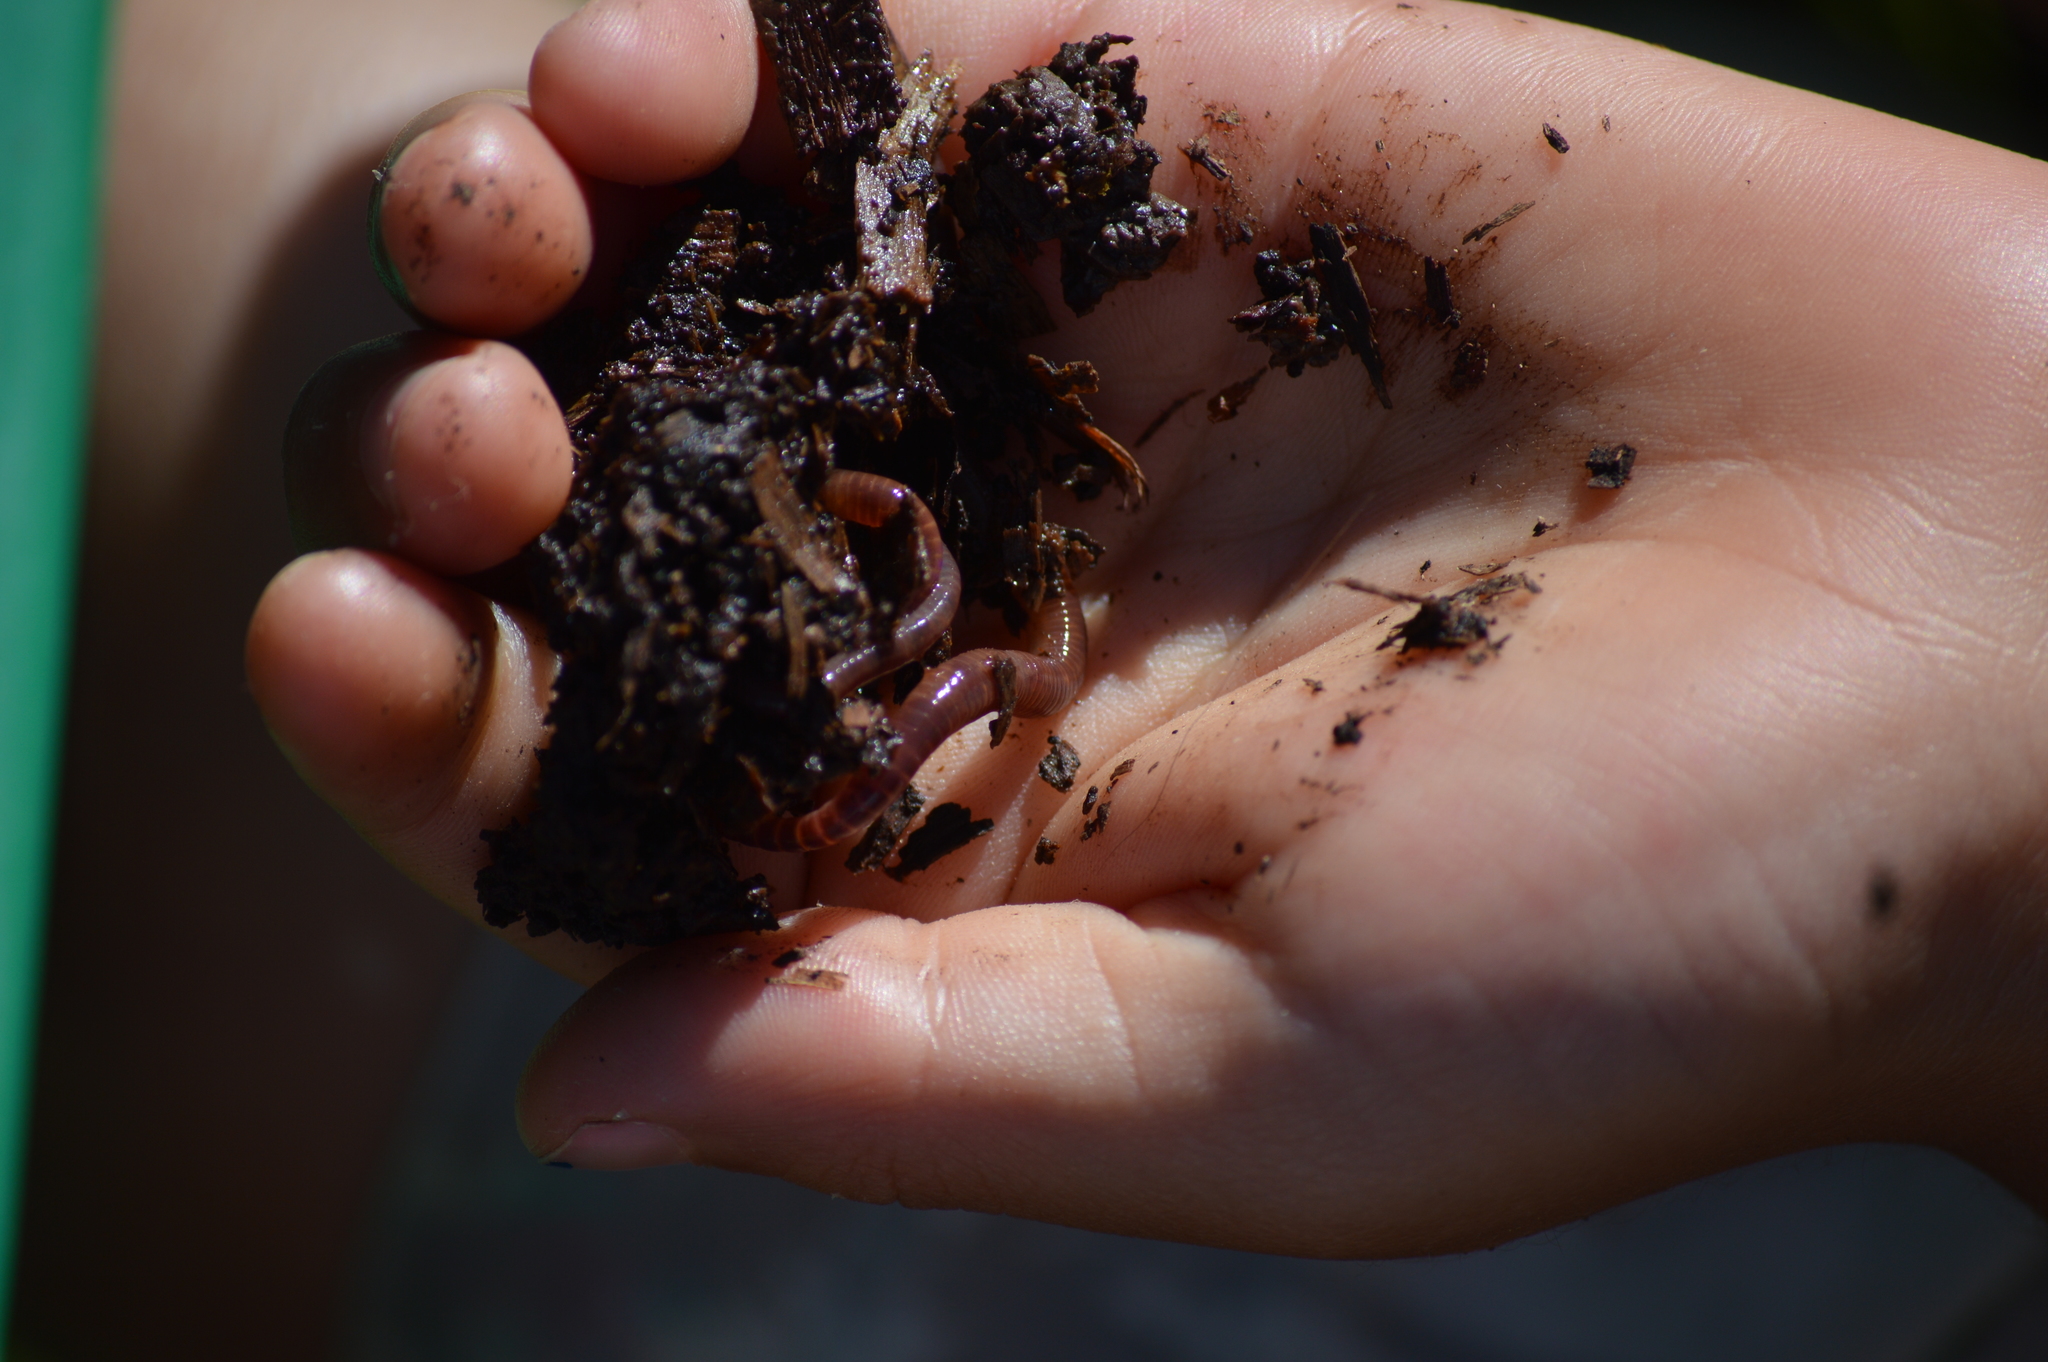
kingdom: Animalia
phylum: Annelida
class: Clitellata
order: Crassiclitellata
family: Lumbricidae
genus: Lumbricus
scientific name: Lumbricus terrestris
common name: Common earthworm
